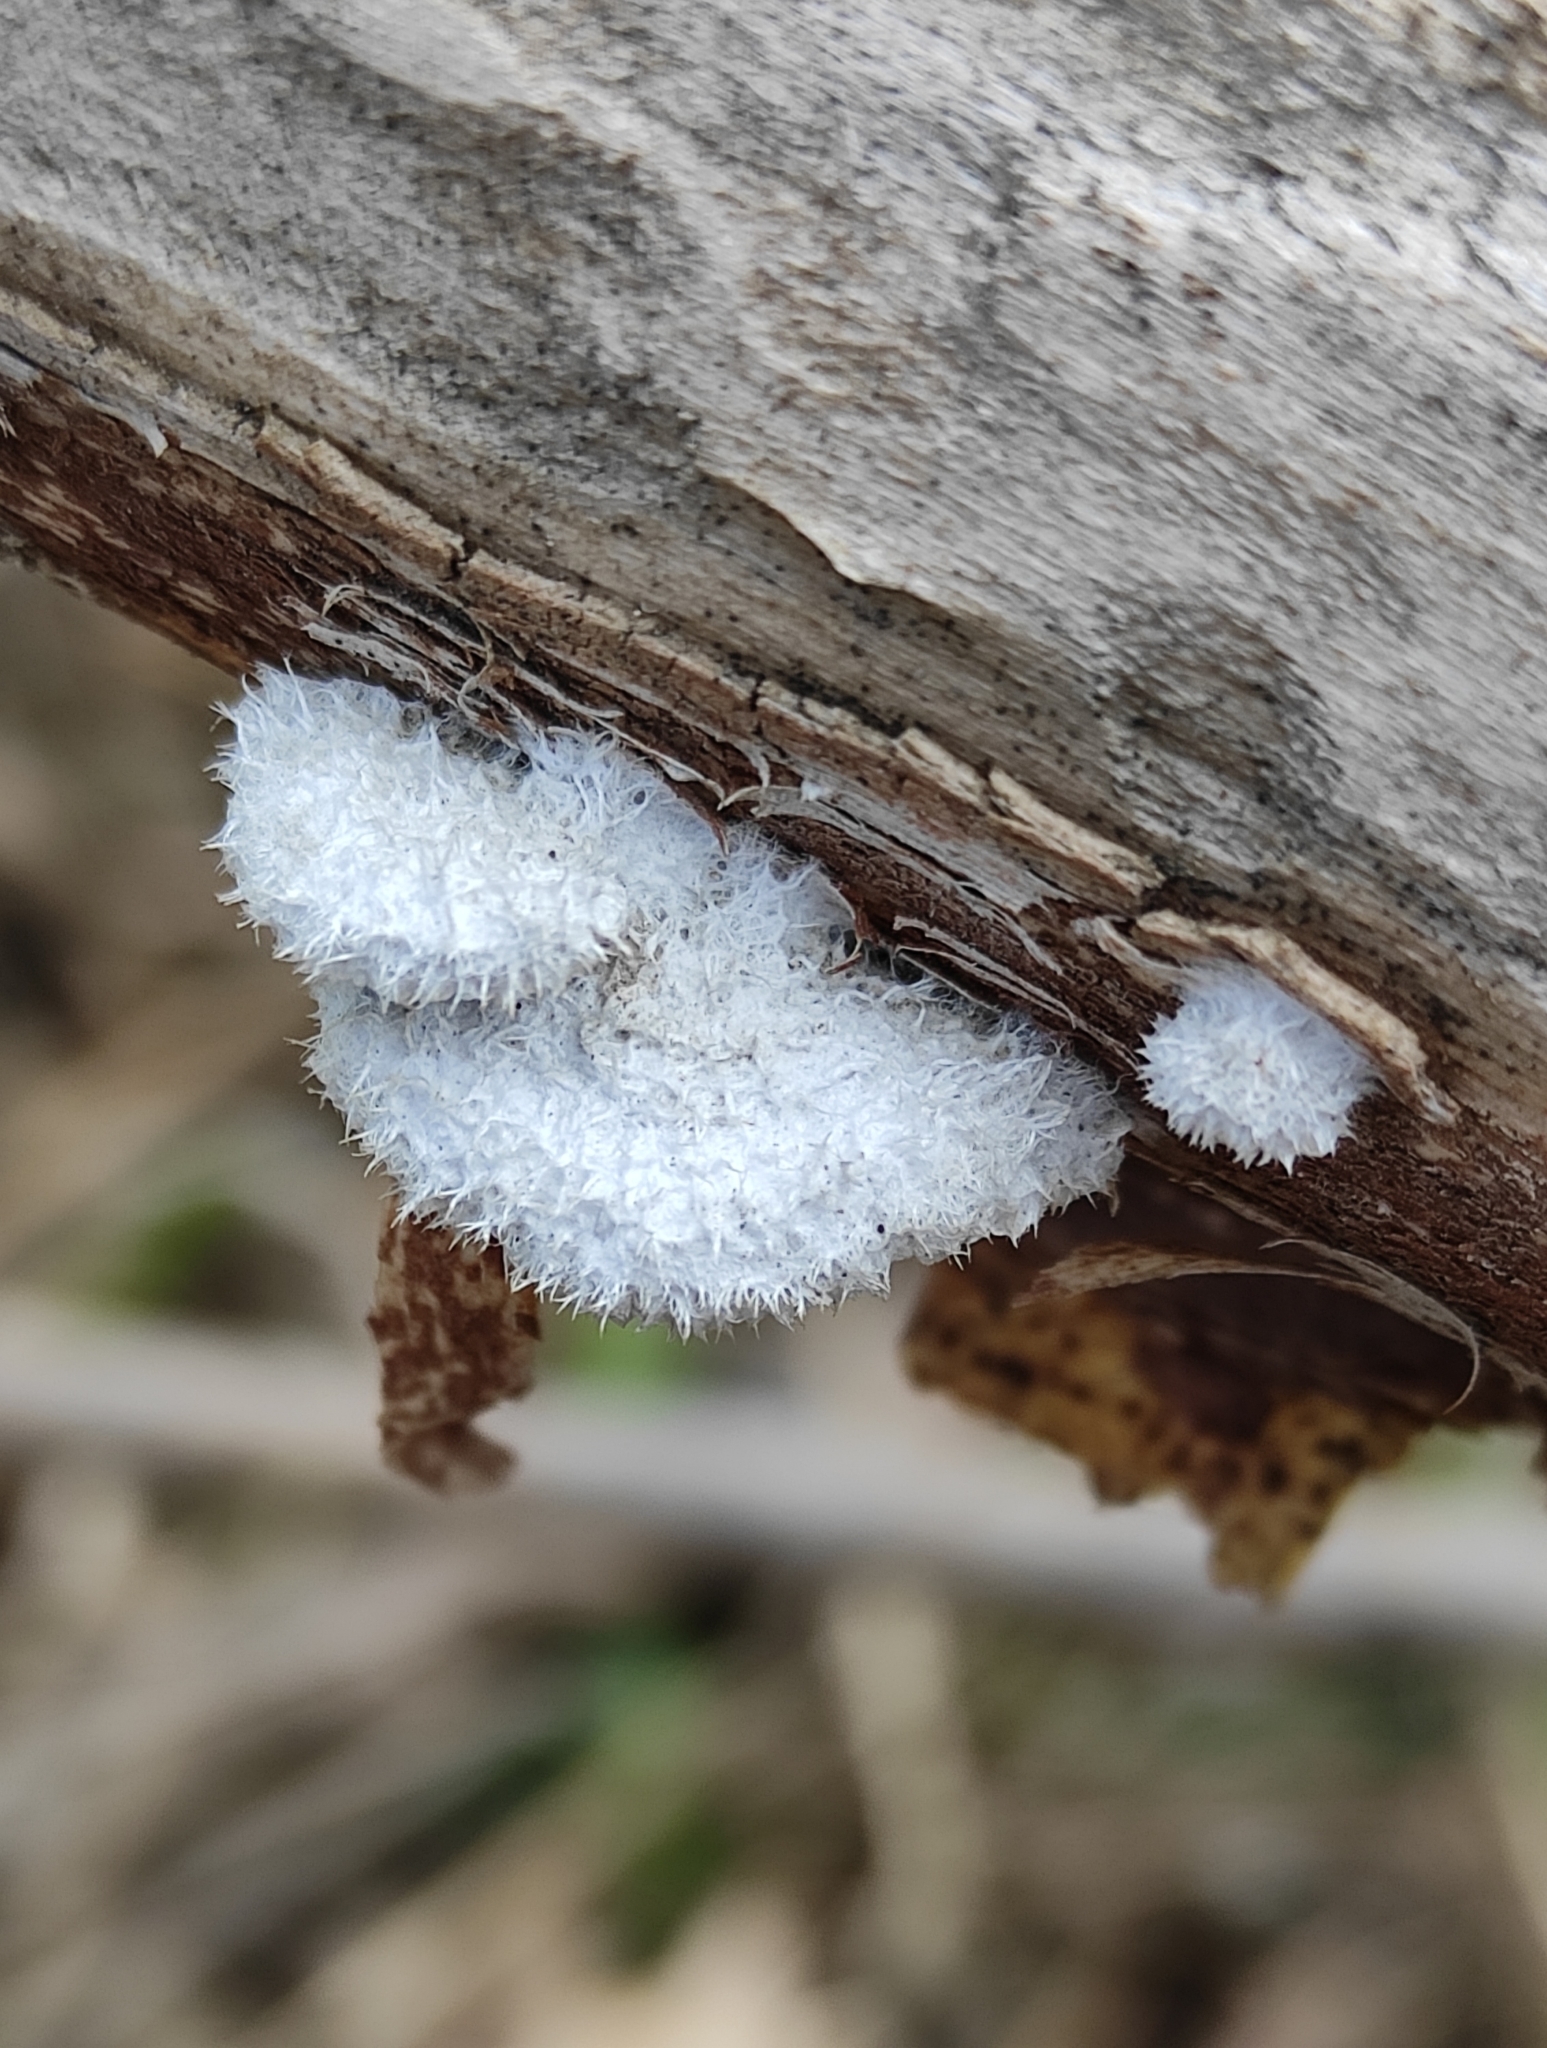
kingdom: Fungi
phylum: Basidiomycota
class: Agaricomycetes
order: Agaricales
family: Schizophyllaceae
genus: Schizophyllum
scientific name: Schizophyllum commune
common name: Common porecrust
